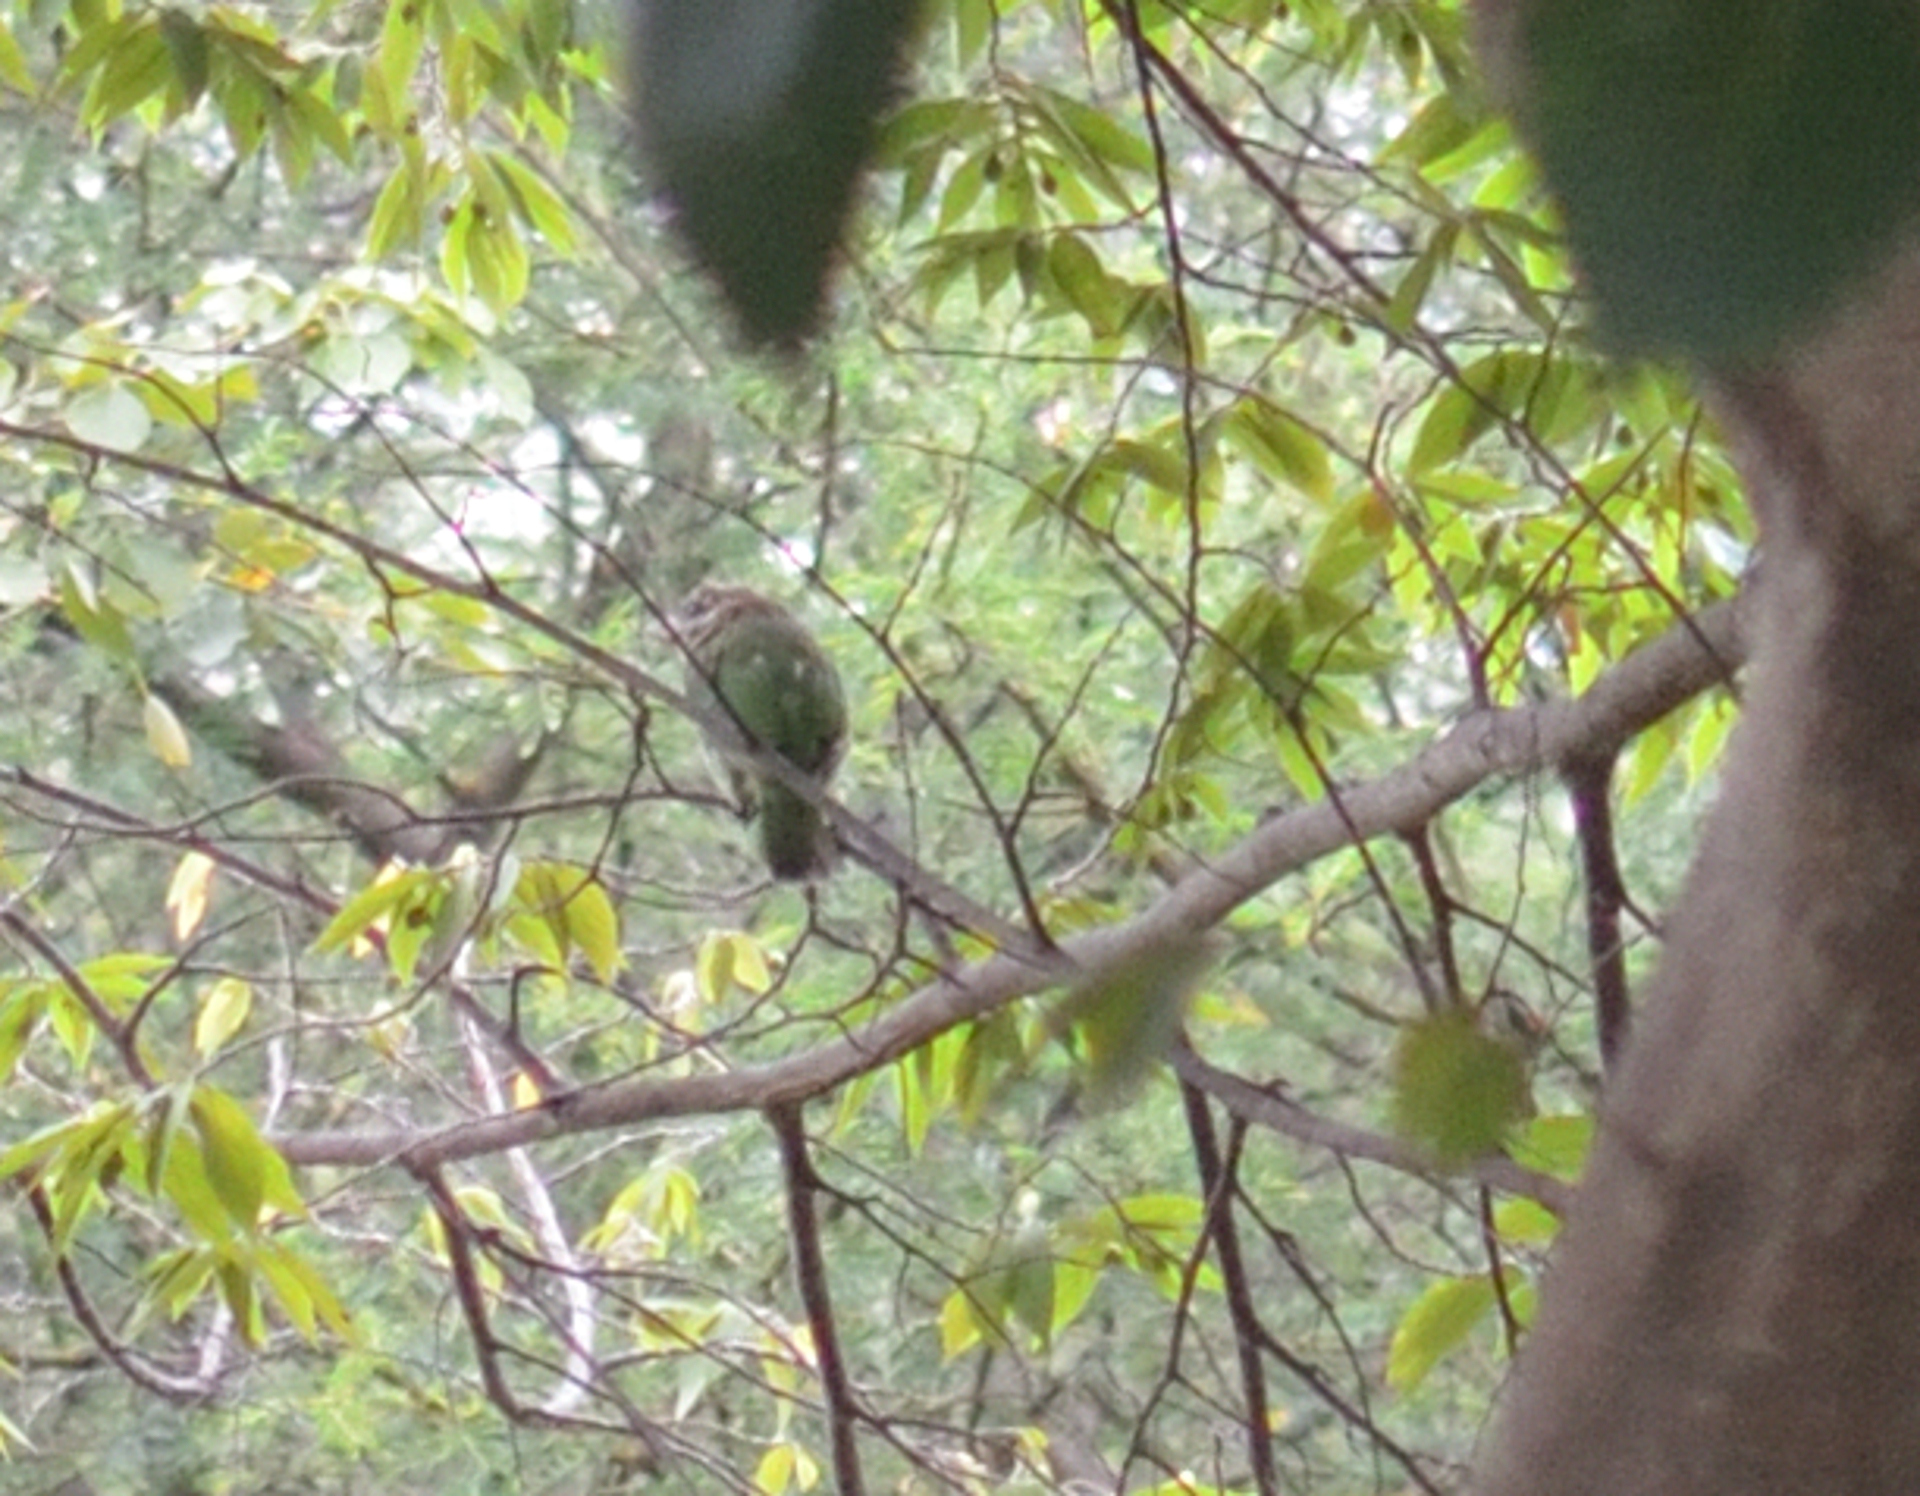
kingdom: Animalia
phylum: Chordata
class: Aves
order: Piciformes
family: Megalaimidae
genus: Psilopogon
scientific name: Psilopogon viridis
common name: White-cheeked barbet
